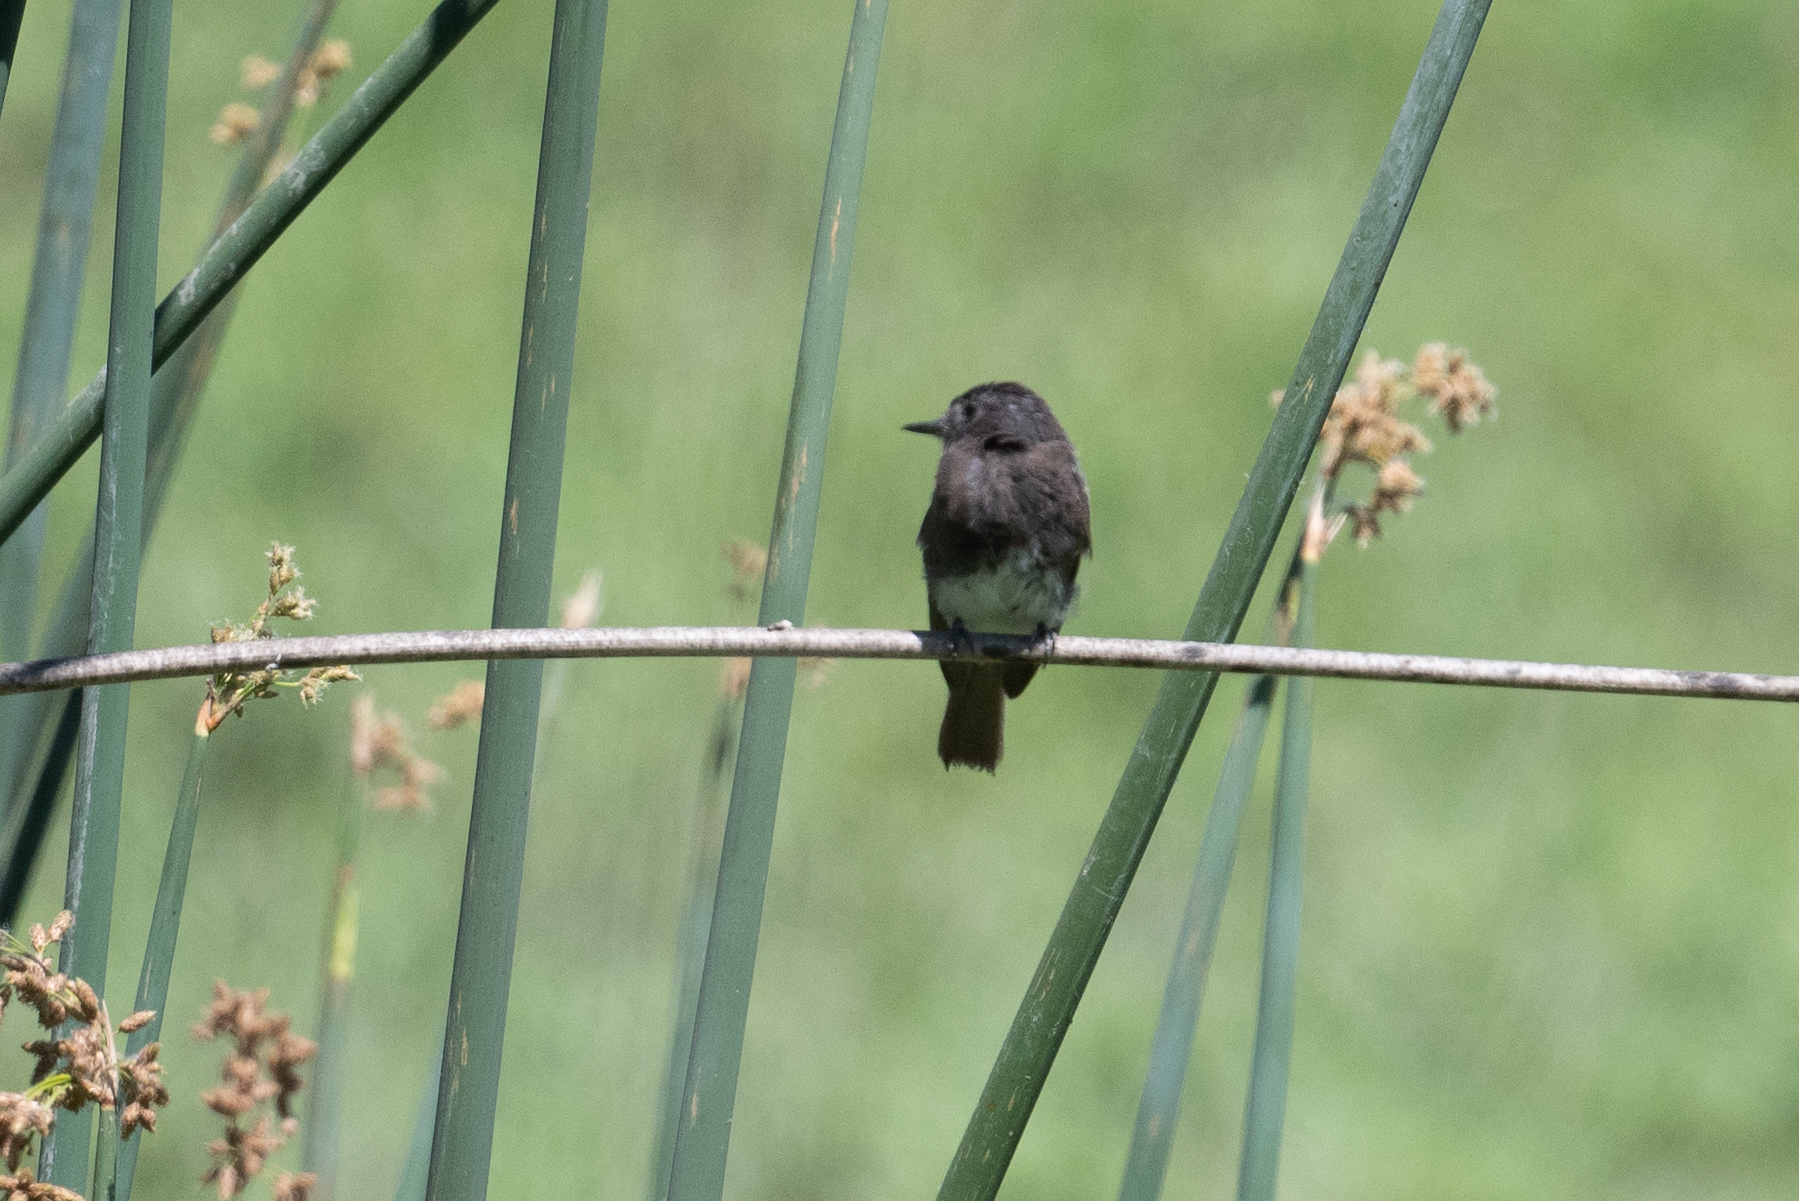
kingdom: Animalia
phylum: Chordata
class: Aves
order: Passeriformes
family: Tyrannidae
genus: Sayornis
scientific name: Sayornis nigricans
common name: Black phoebe
